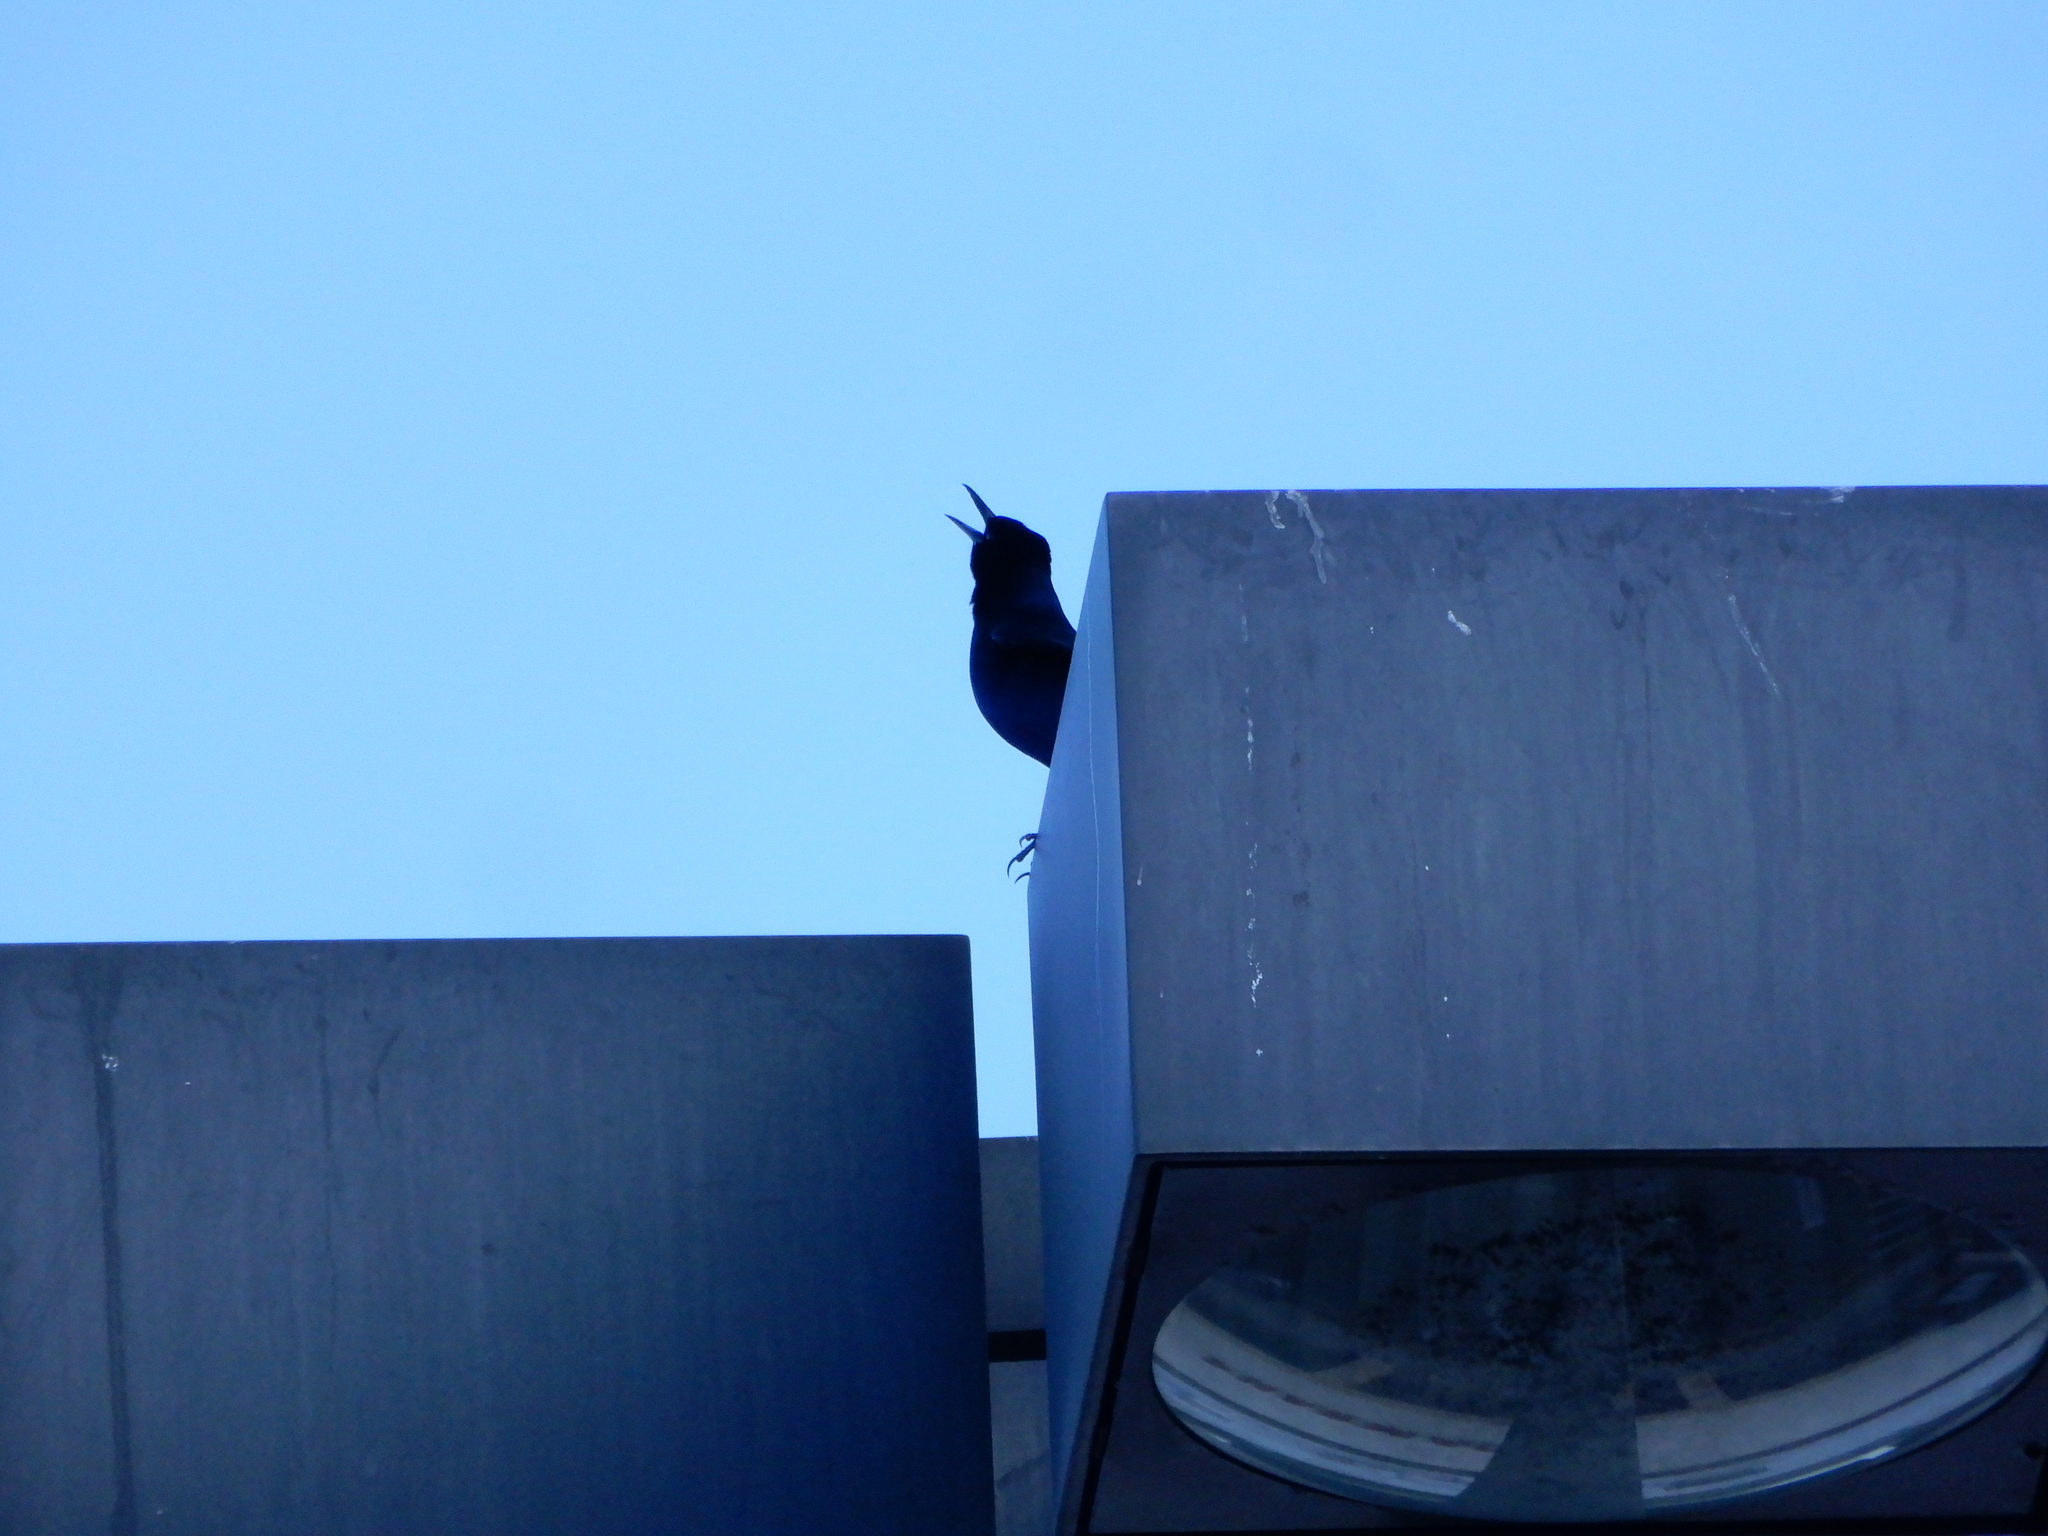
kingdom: Animalia
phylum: Chordata
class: Aves
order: Passeriformes
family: Icteridae
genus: Quiscalus
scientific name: Quiscalus major
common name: Boat-tailed grackle
